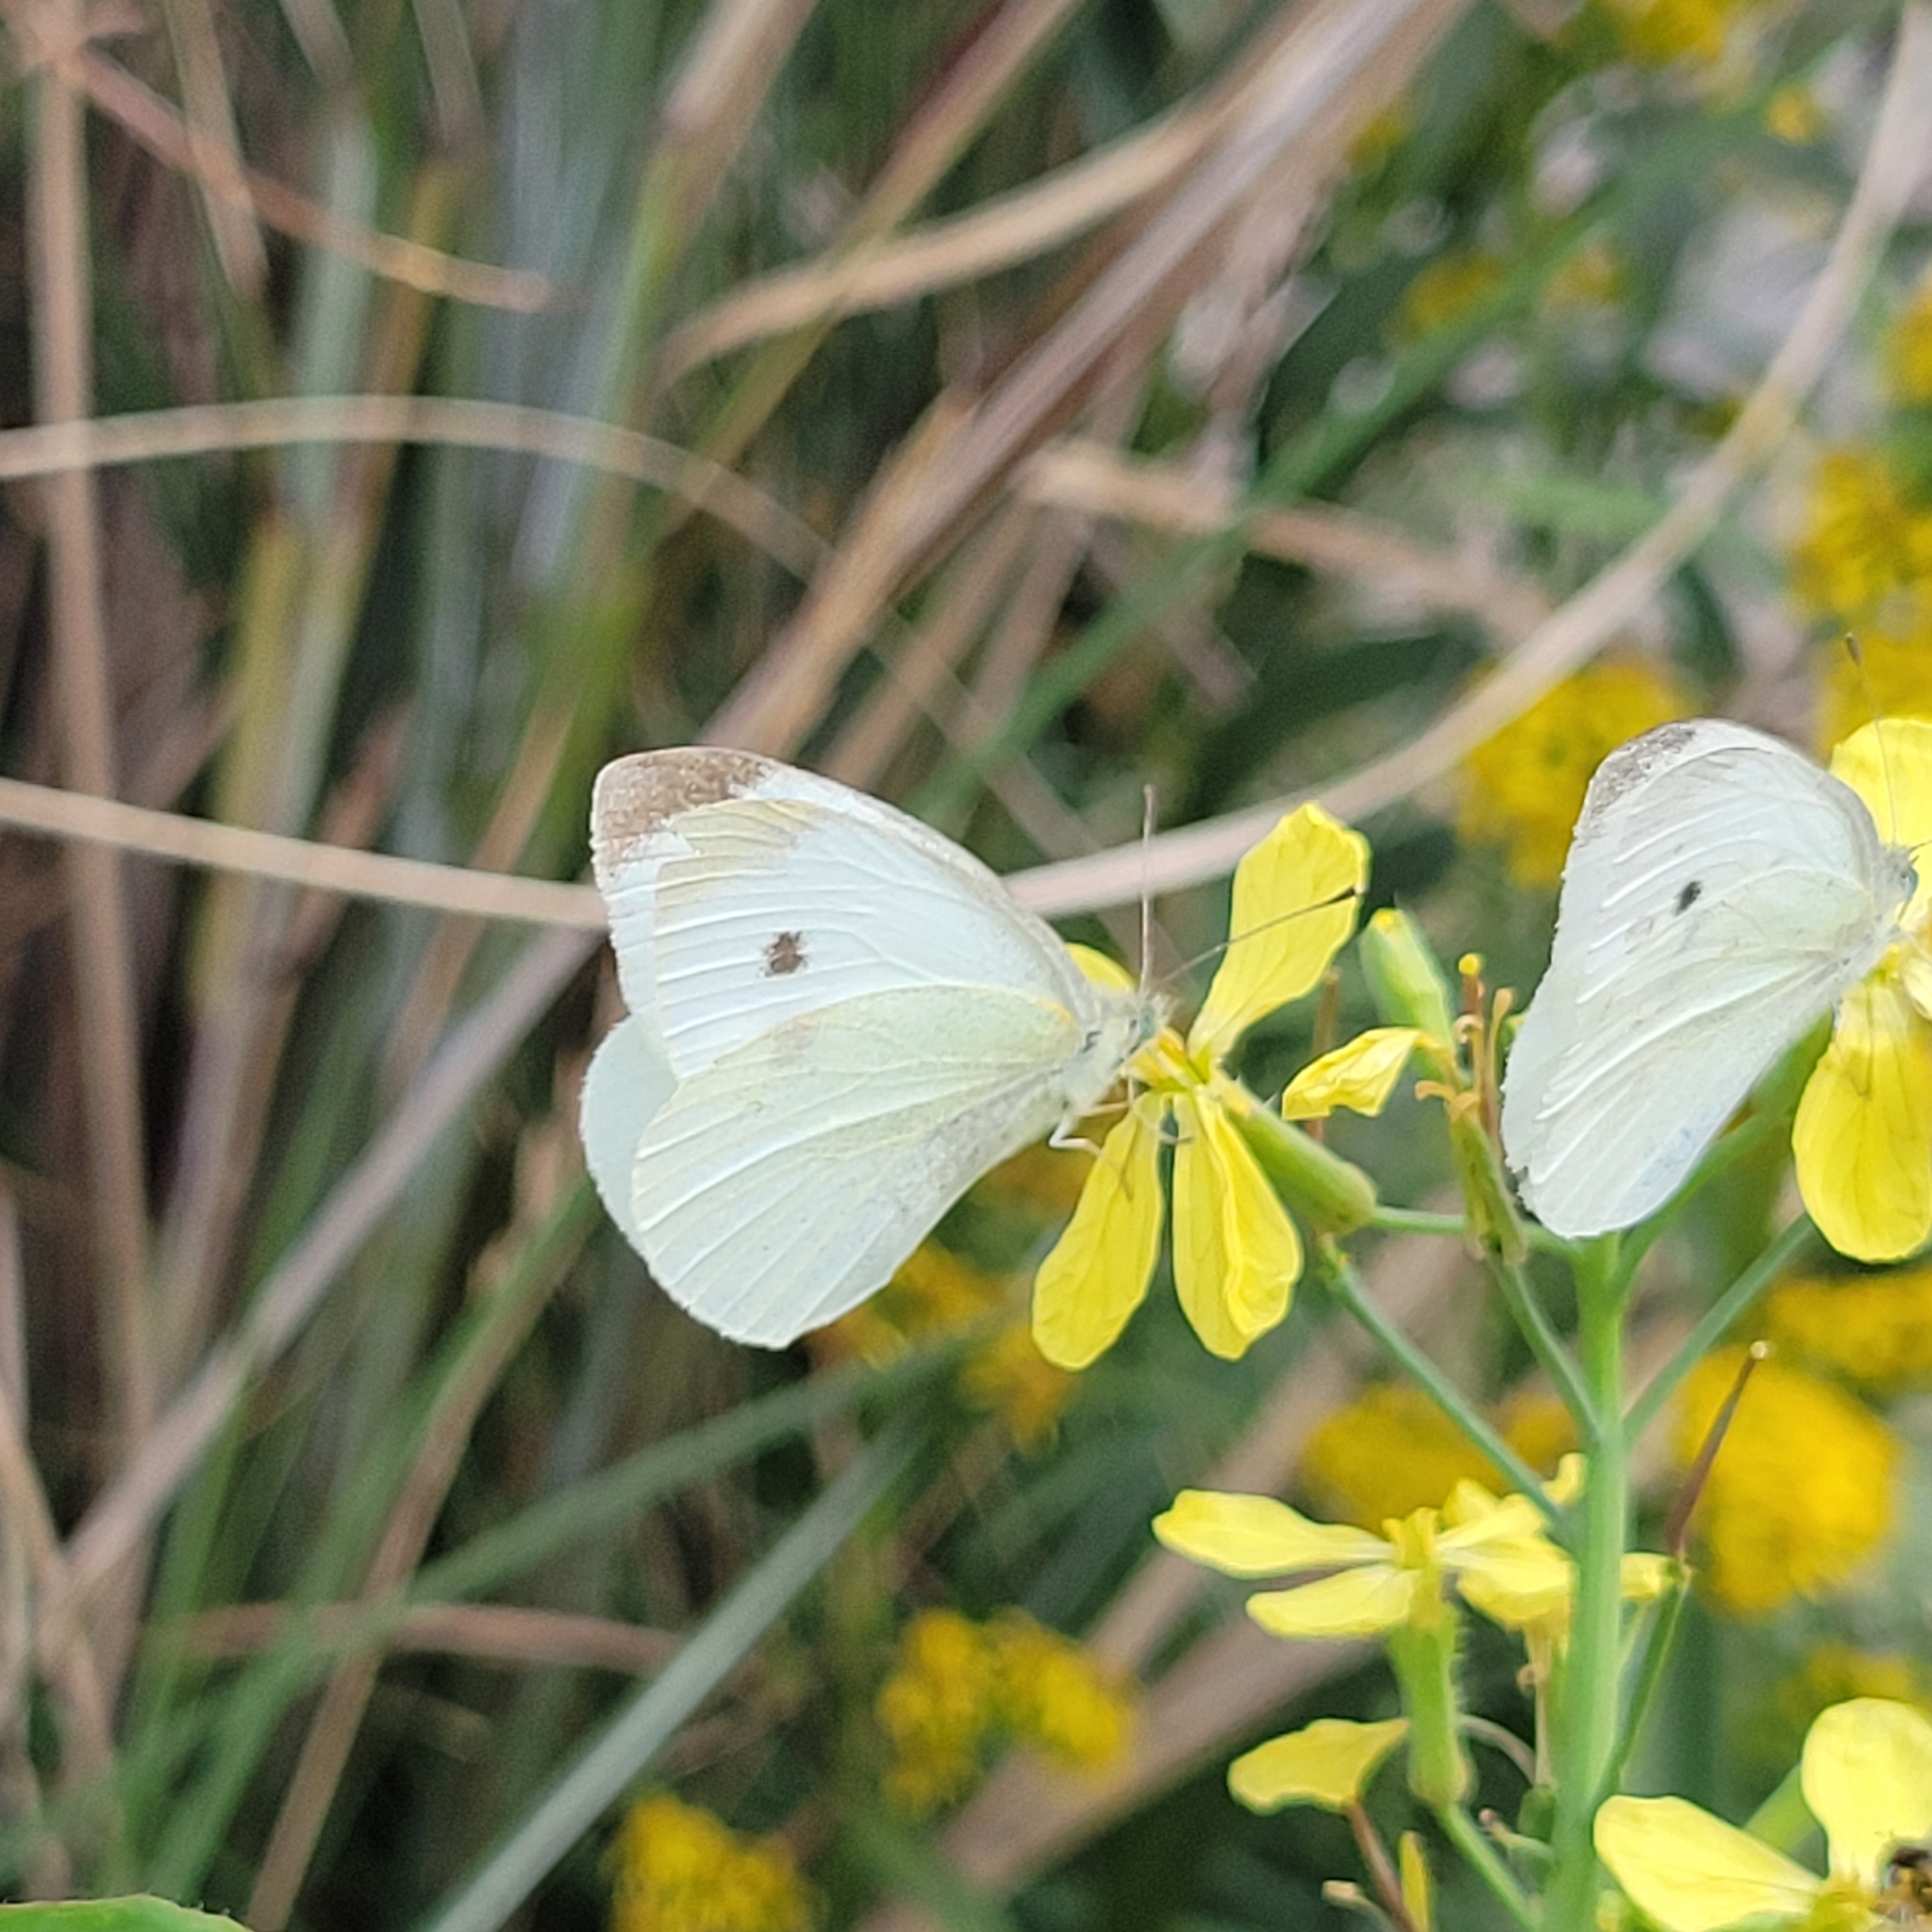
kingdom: Animalia
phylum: Arthropoda
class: Insecta
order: Lepidoptera
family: Pieridae
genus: Pieris
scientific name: Pieris rapae
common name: Small white
